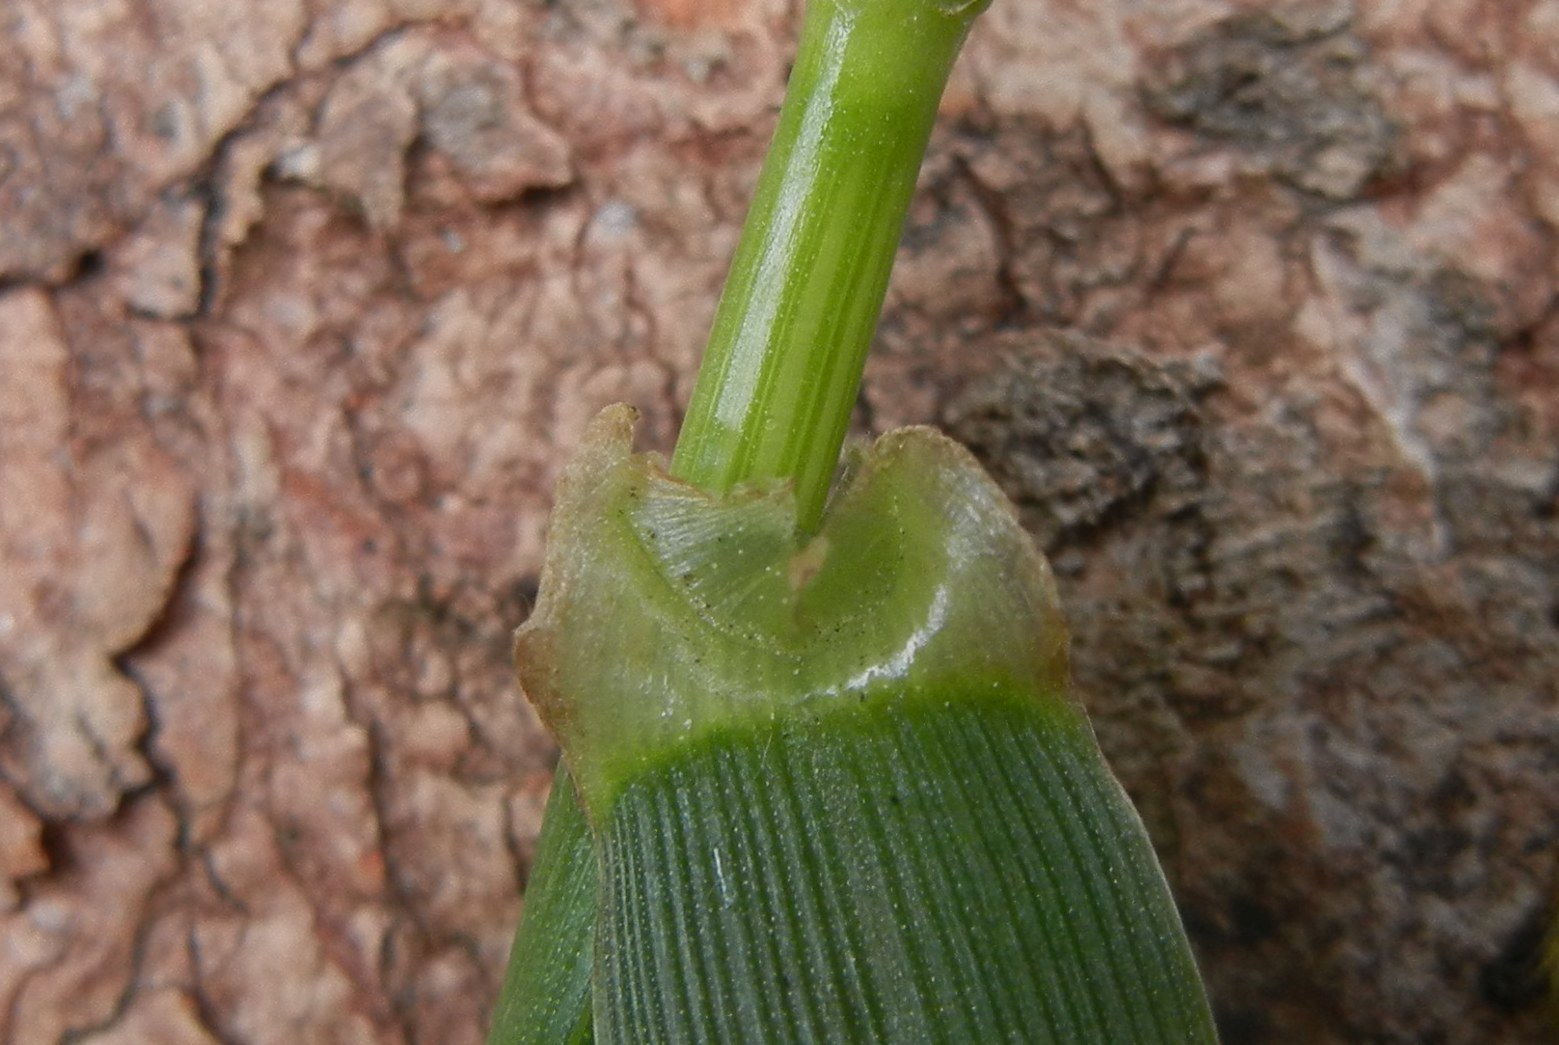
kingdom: Plantae
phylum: Tracheophyta
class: Liliopsida
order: Poales
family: Poaceae
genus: Lolium
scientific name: Lolium multiflorum
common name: Annual ryegrass
